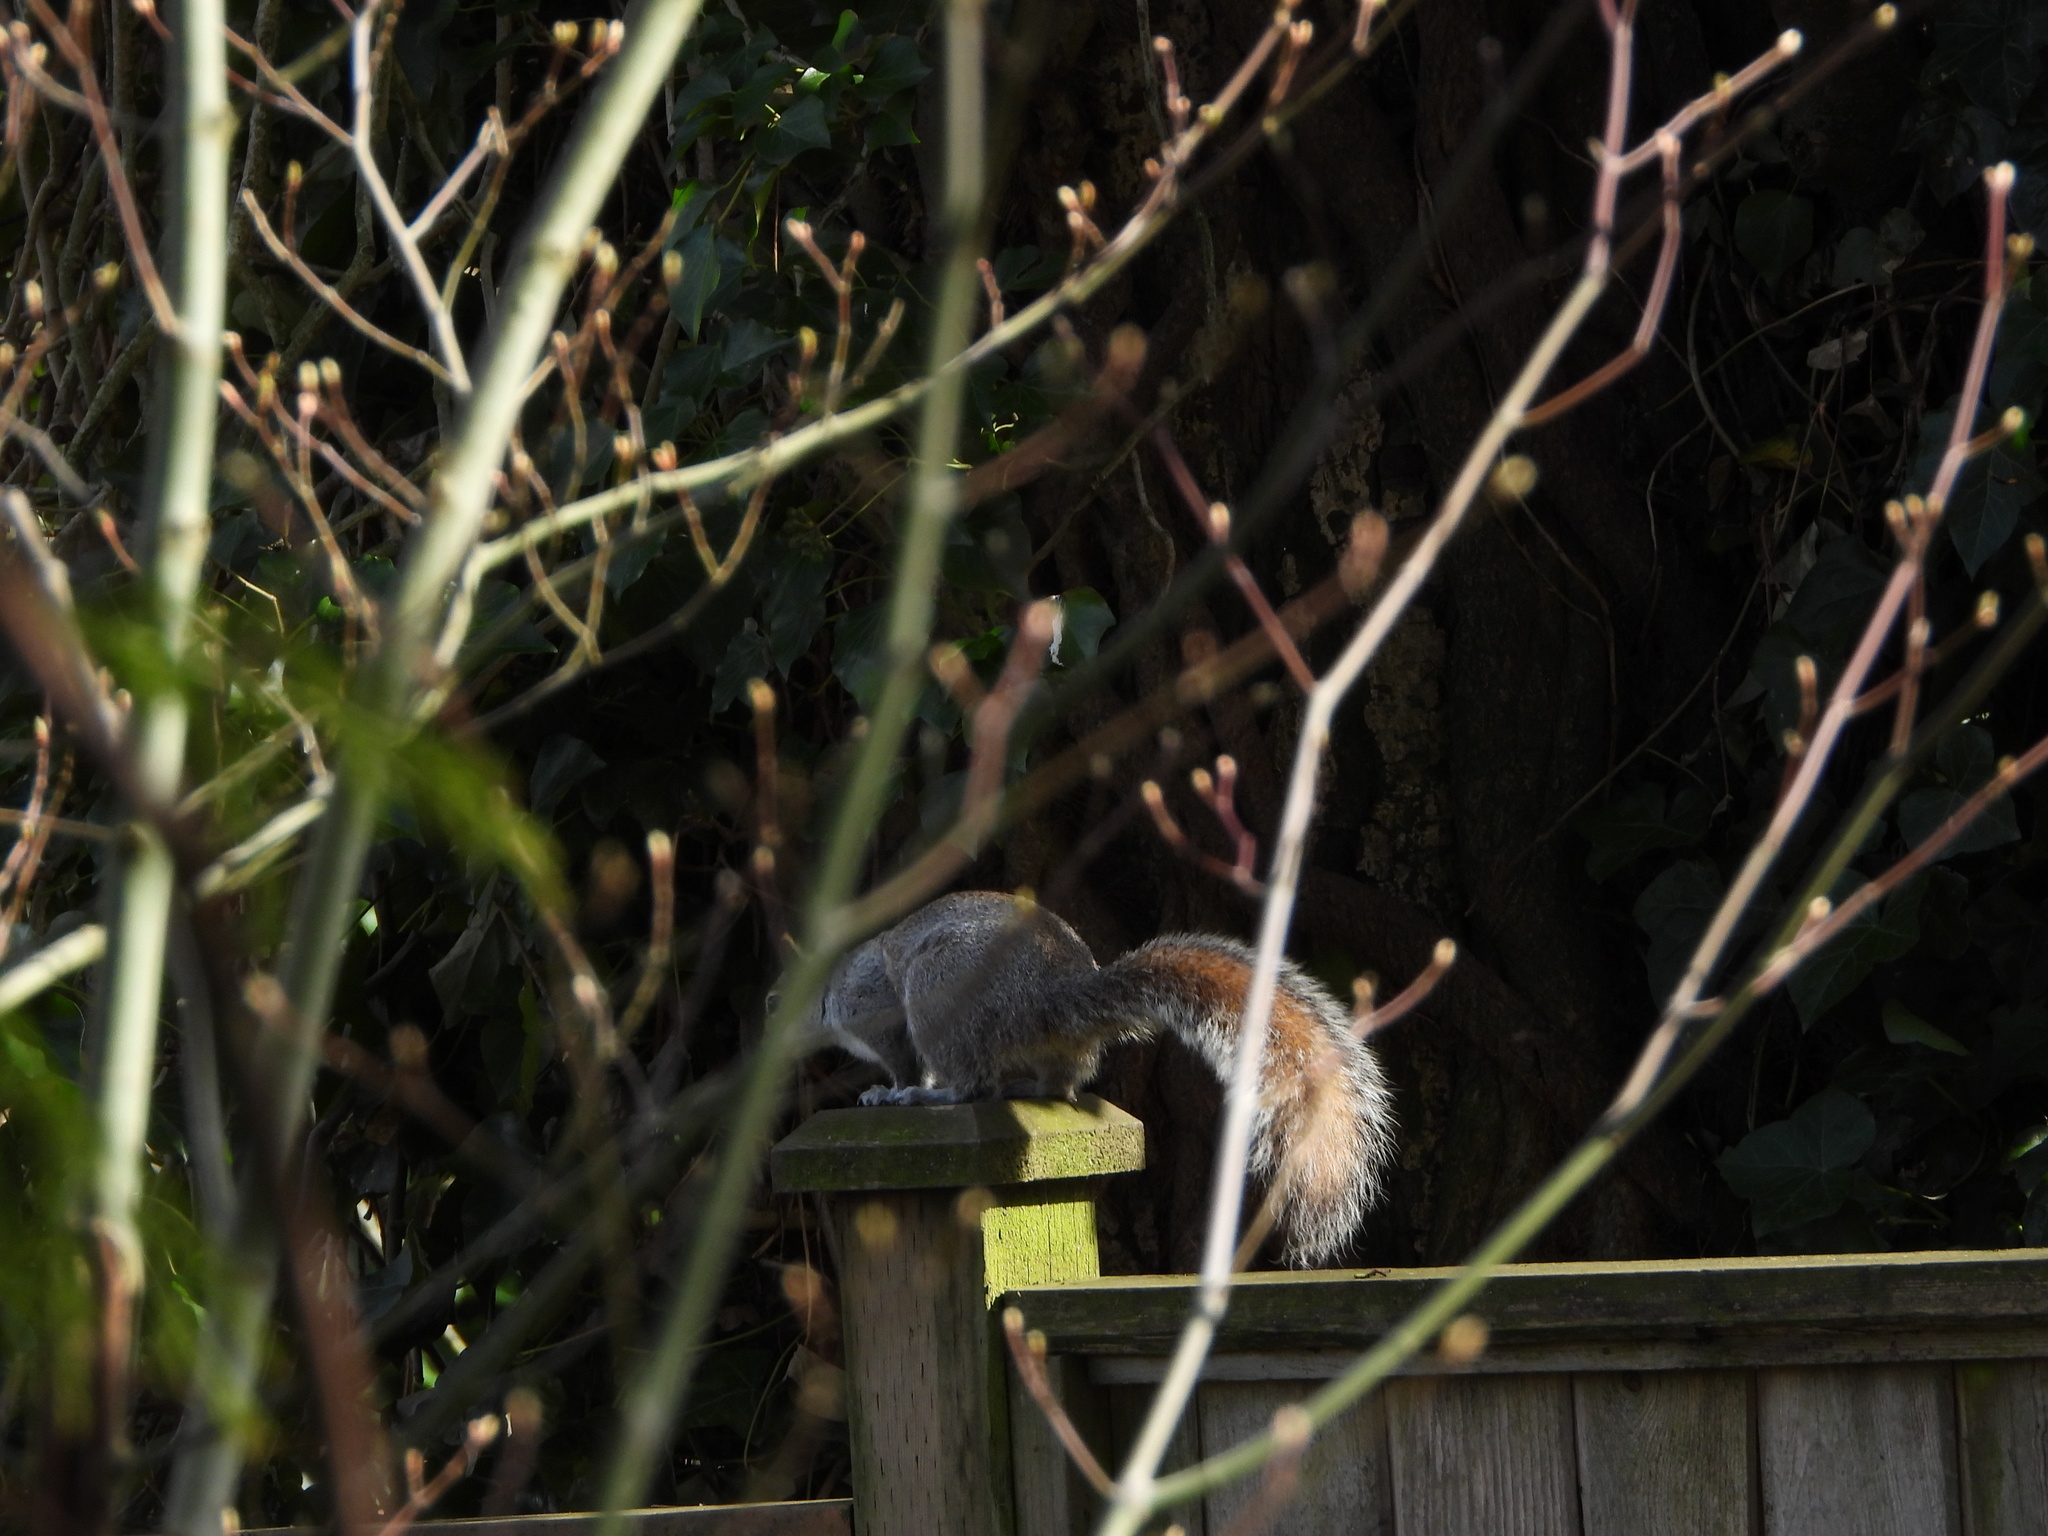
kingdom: Animalia
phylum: Chordata
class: Mammalia
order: Rodentia
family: Sciuridae
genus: Sciurus
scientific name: Sciurus carolinensis
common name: Eastern gray squirrel
